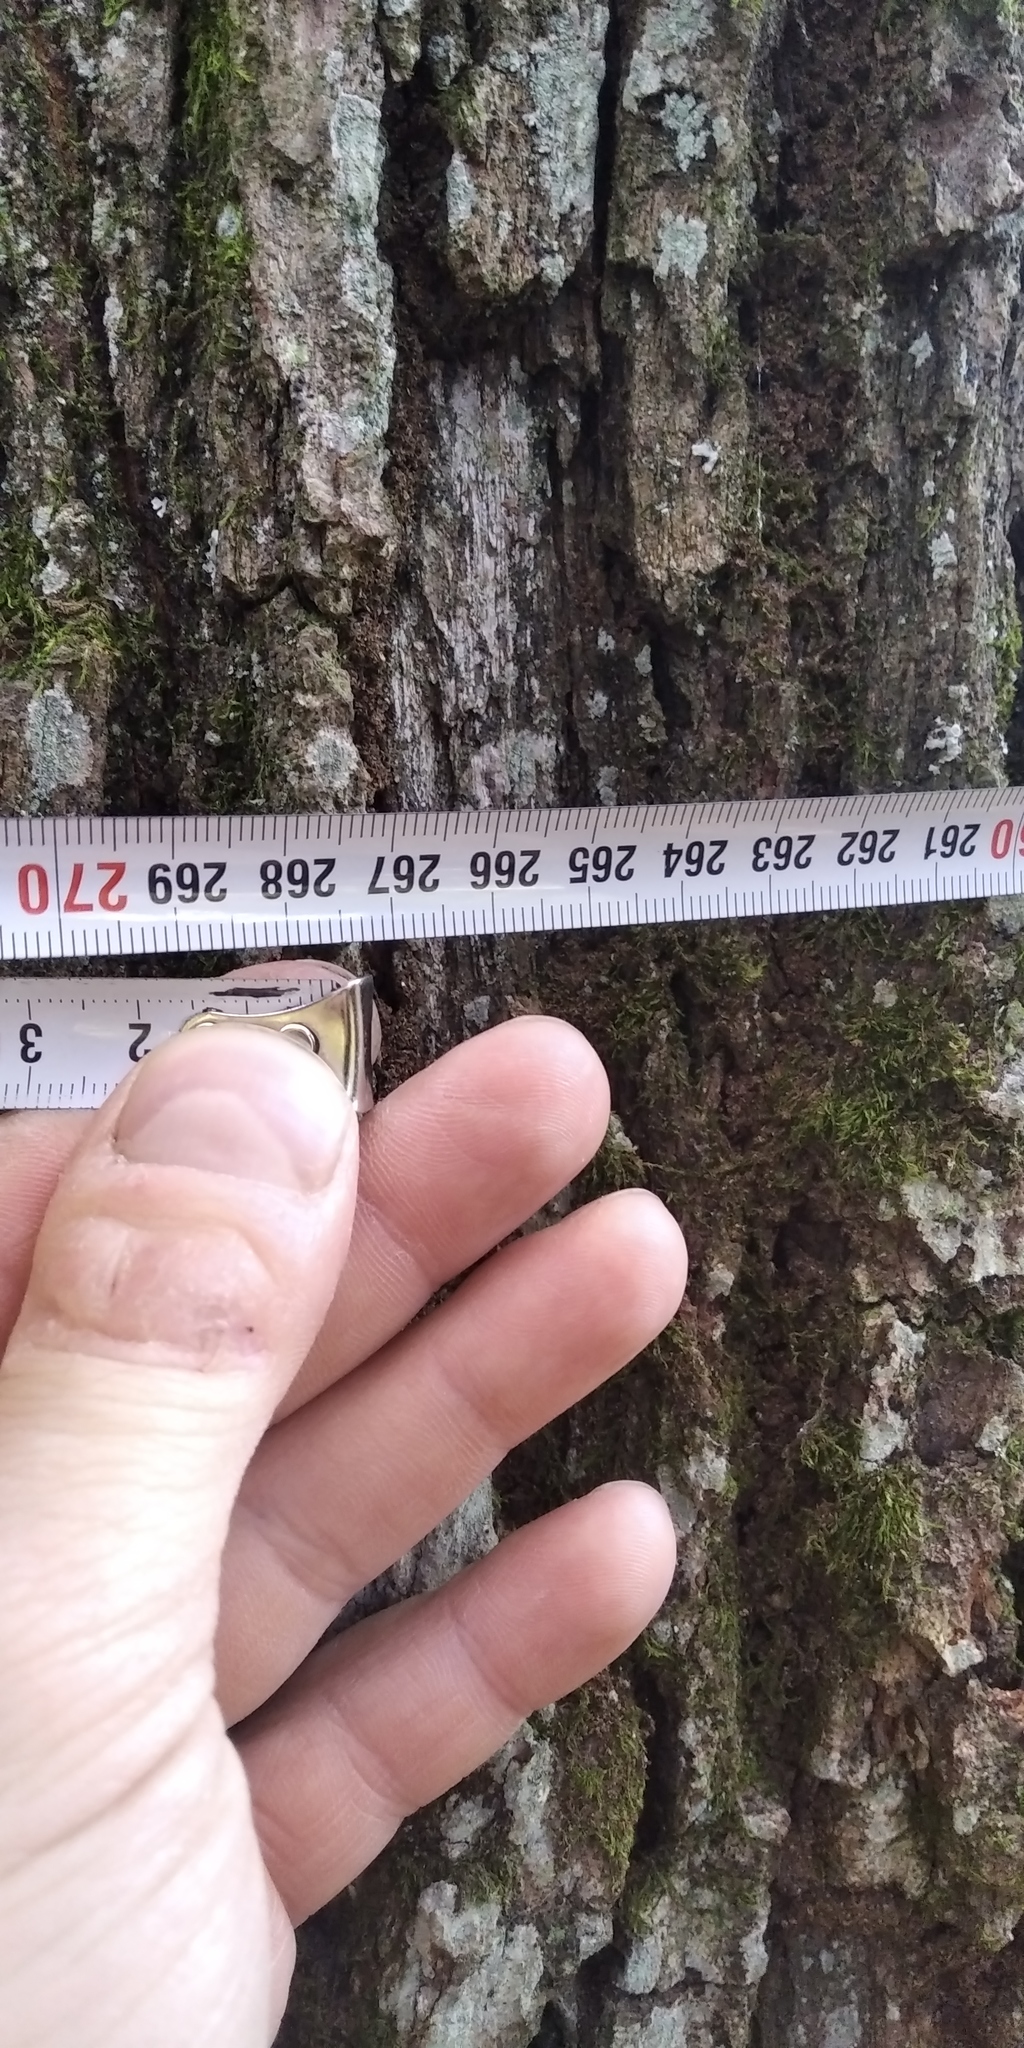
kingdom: Plantae
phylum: Tracheophyta
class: Magnoliopsida
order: Fagales
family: Fagaceae
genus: Quercus
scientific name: Quercus robur
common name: Pedunculate oak
